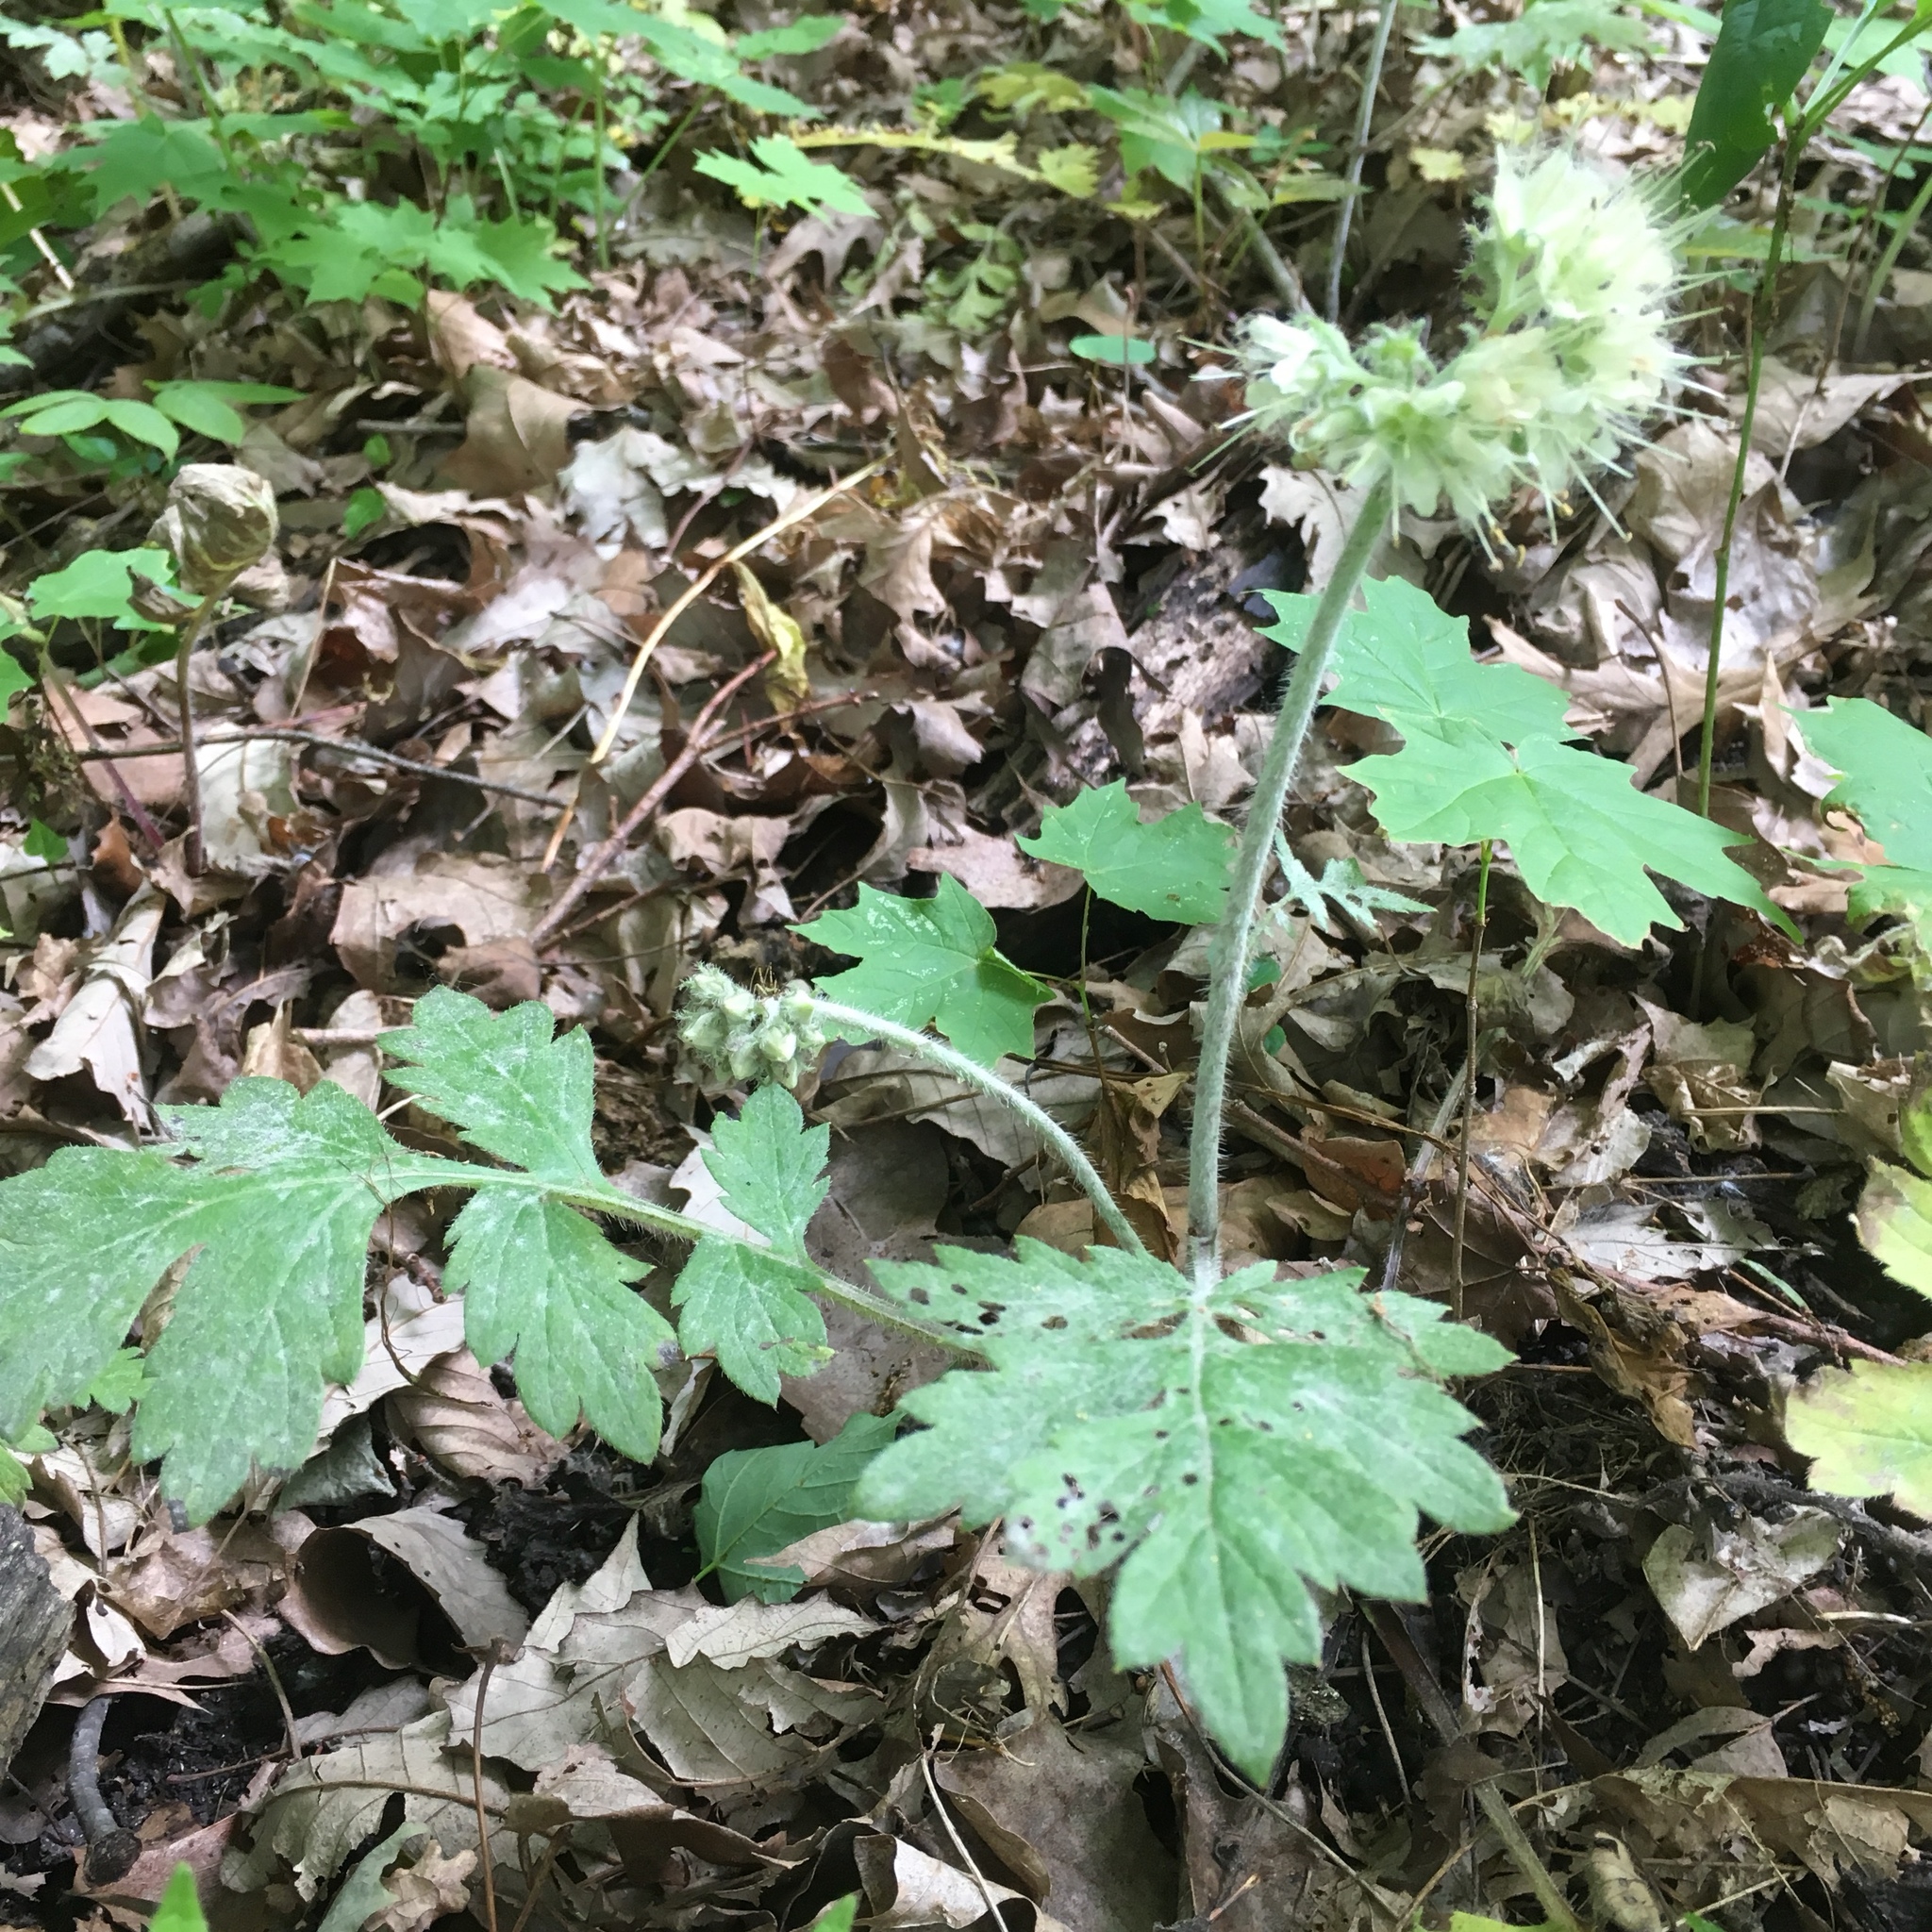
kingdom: Plantae
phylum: Tracheophyta
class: Magnoliopsida
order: Boraginales
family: Hydrophyllaceae
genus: Hydrophyllum
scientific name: Hydrophyllum macrophyllum
